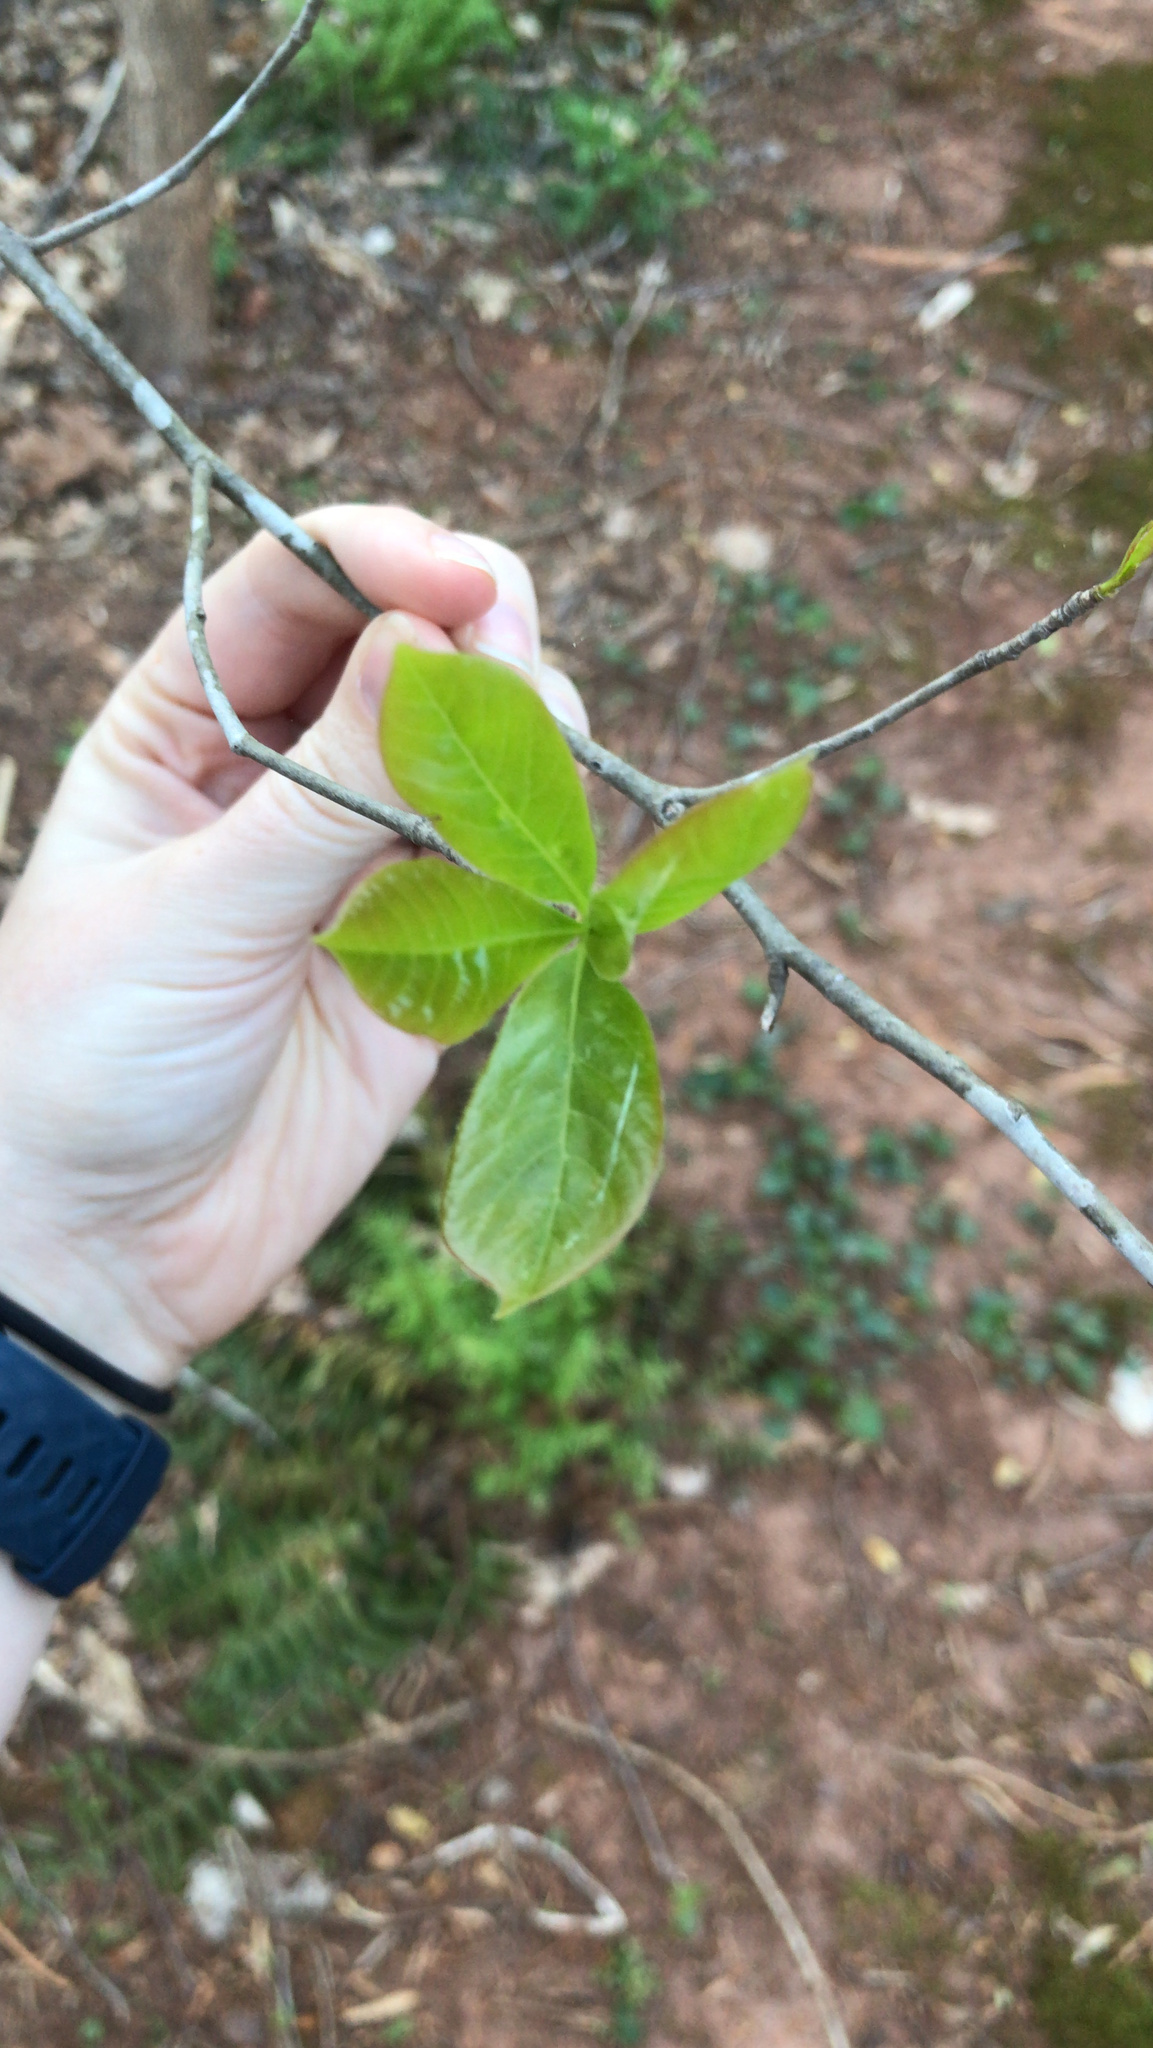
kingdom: Plantae
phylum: Tracheophyta
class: Magnoliopsida
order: Cornales
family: Nyssaceae
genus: Nyssa
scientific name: Nyssa sylvatica
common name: Black tupelo
